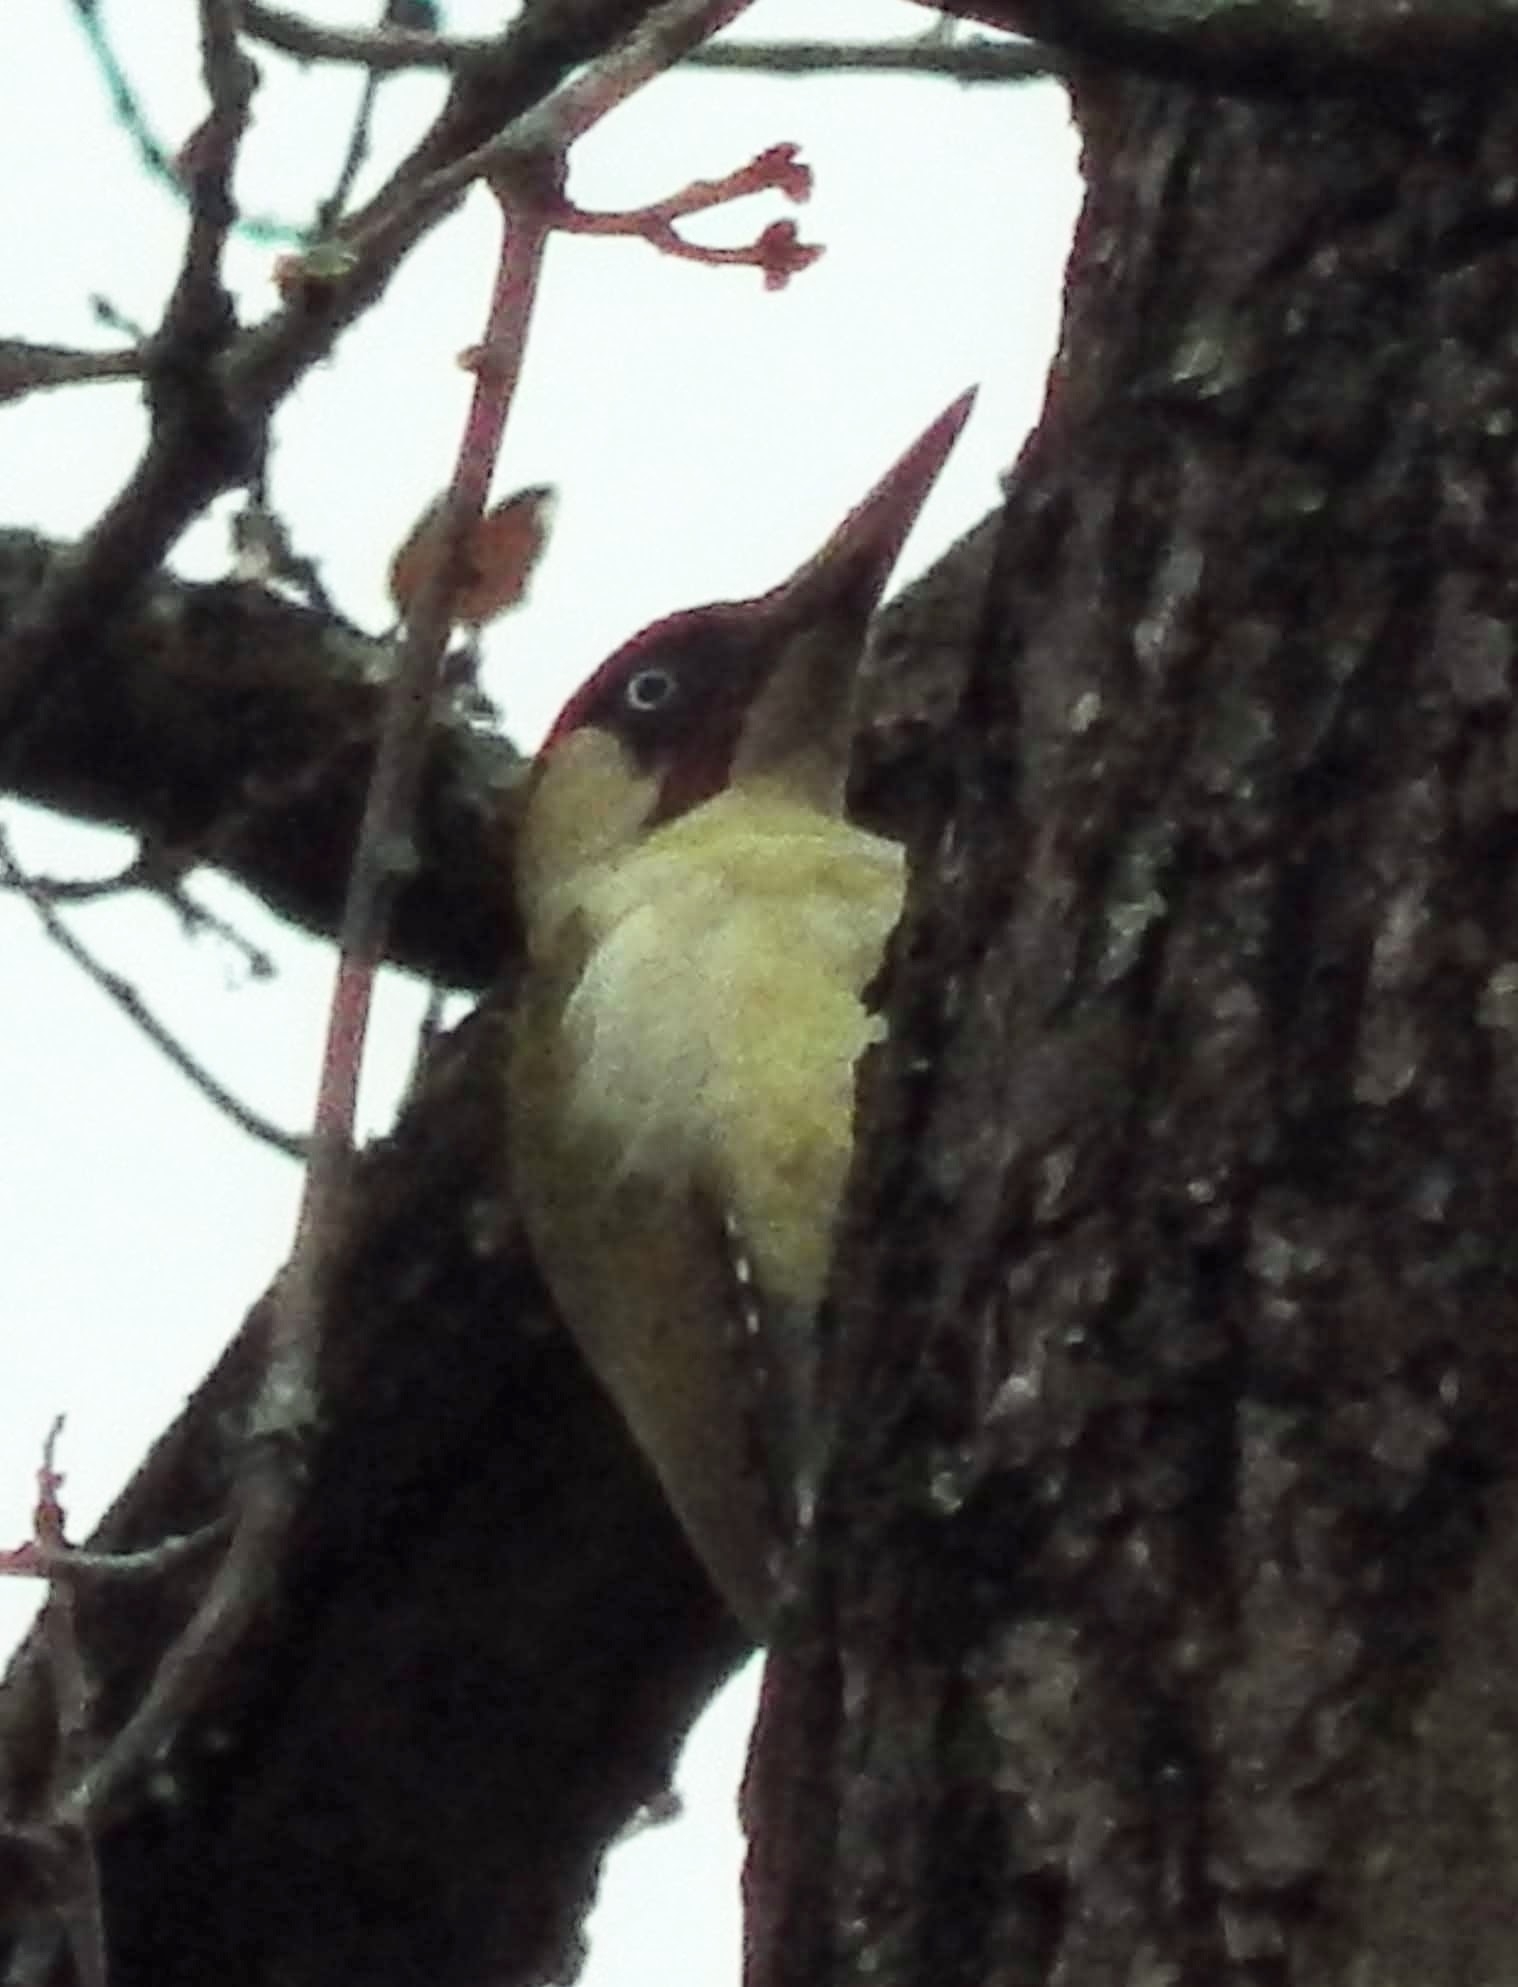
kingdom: Animalia
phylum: Chordata
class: Aves
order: Piciformes
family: Picidae
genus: Picus
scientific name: Picus viridis
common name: European green woodpecker
